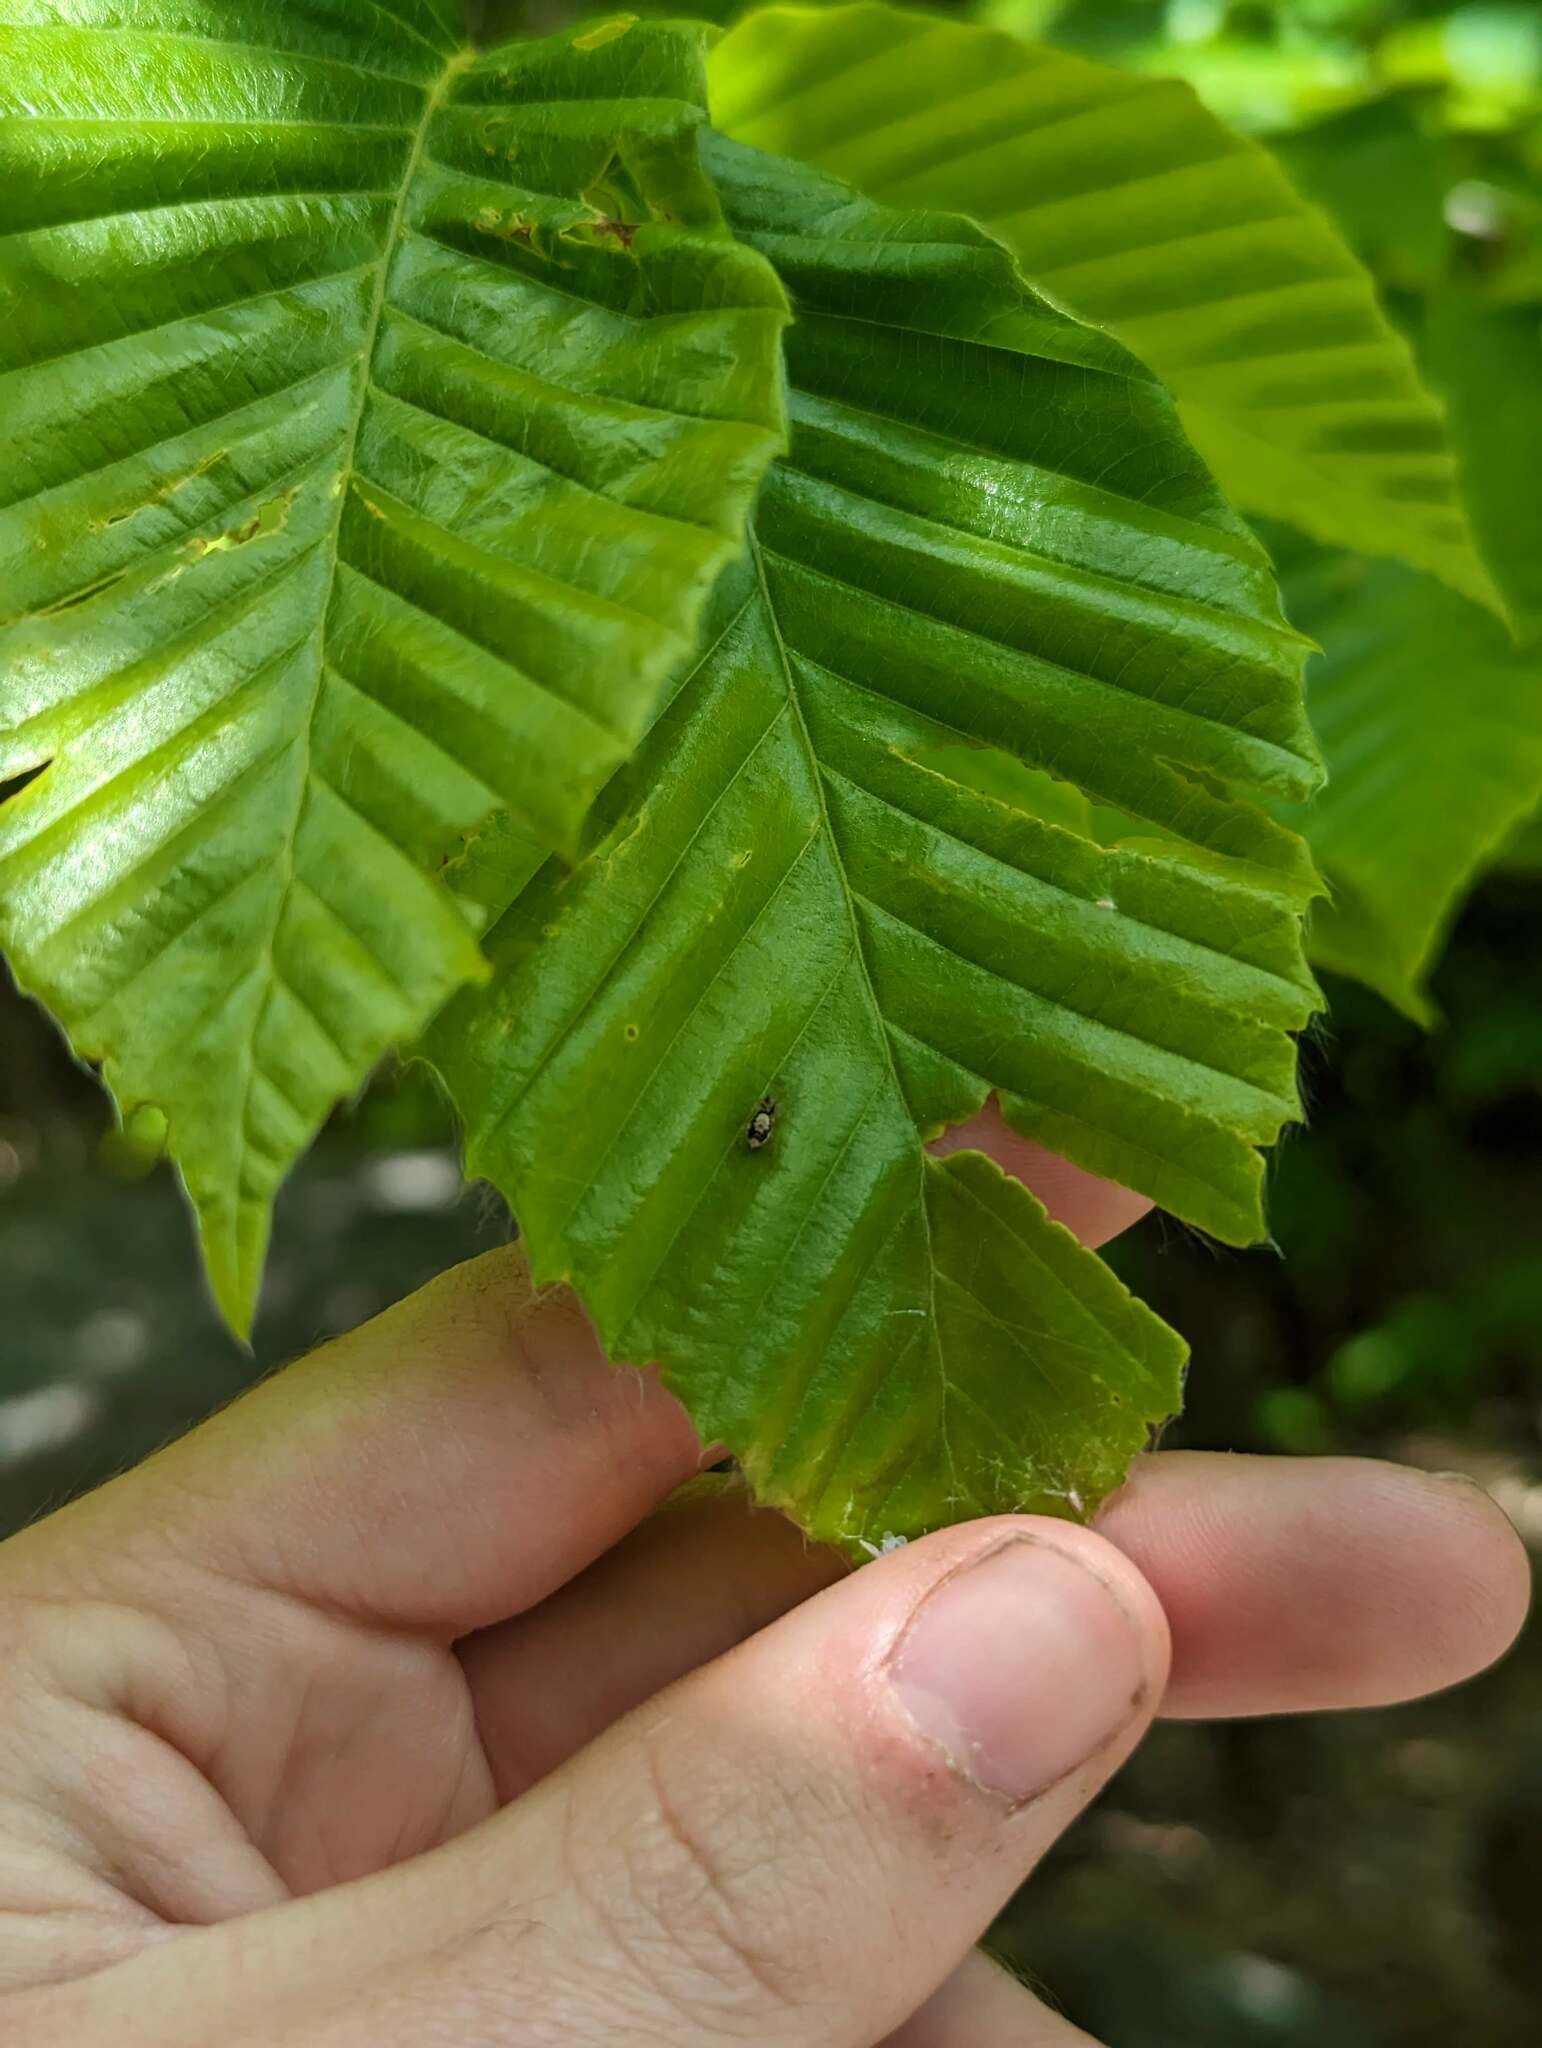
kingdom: Plantae
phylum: Tracheophyta
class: Magnoliopsida
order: Fagales
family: Fagaceae
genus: Fagus
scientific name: Fagus grandifolia
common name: American beech
